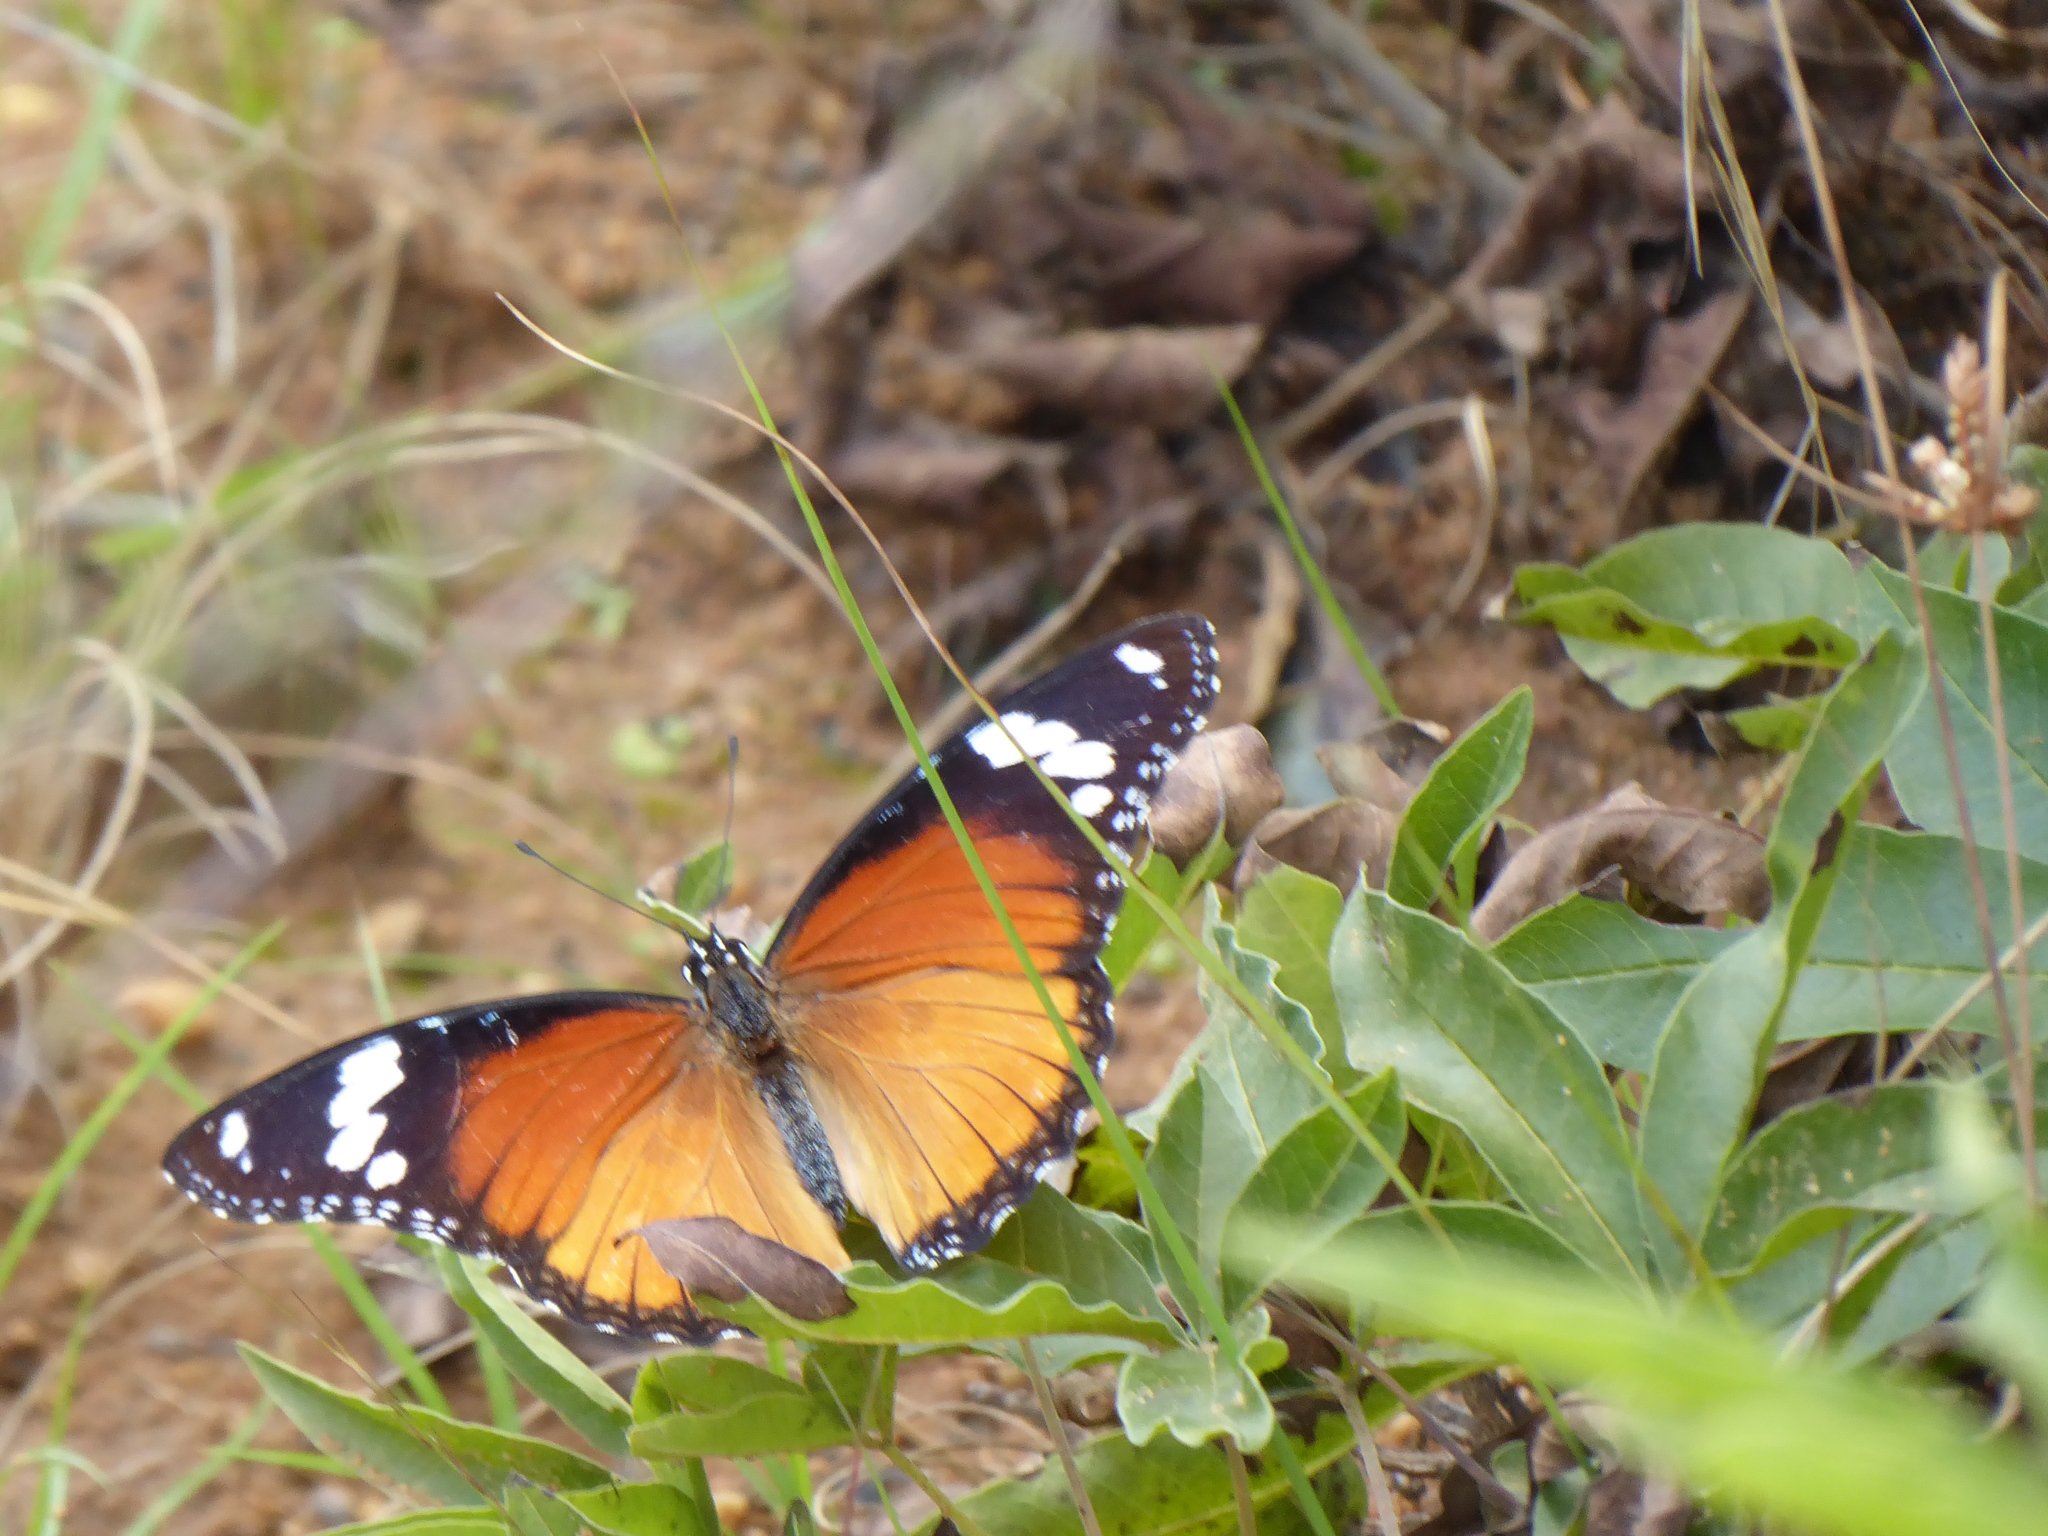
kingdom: Animalia
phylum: Arthropoda
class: Insecta
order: Lepidoptera
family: Nymphalidae
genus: Hypolimnas
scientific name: Hypolimnas misippus
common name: False plain tiger
